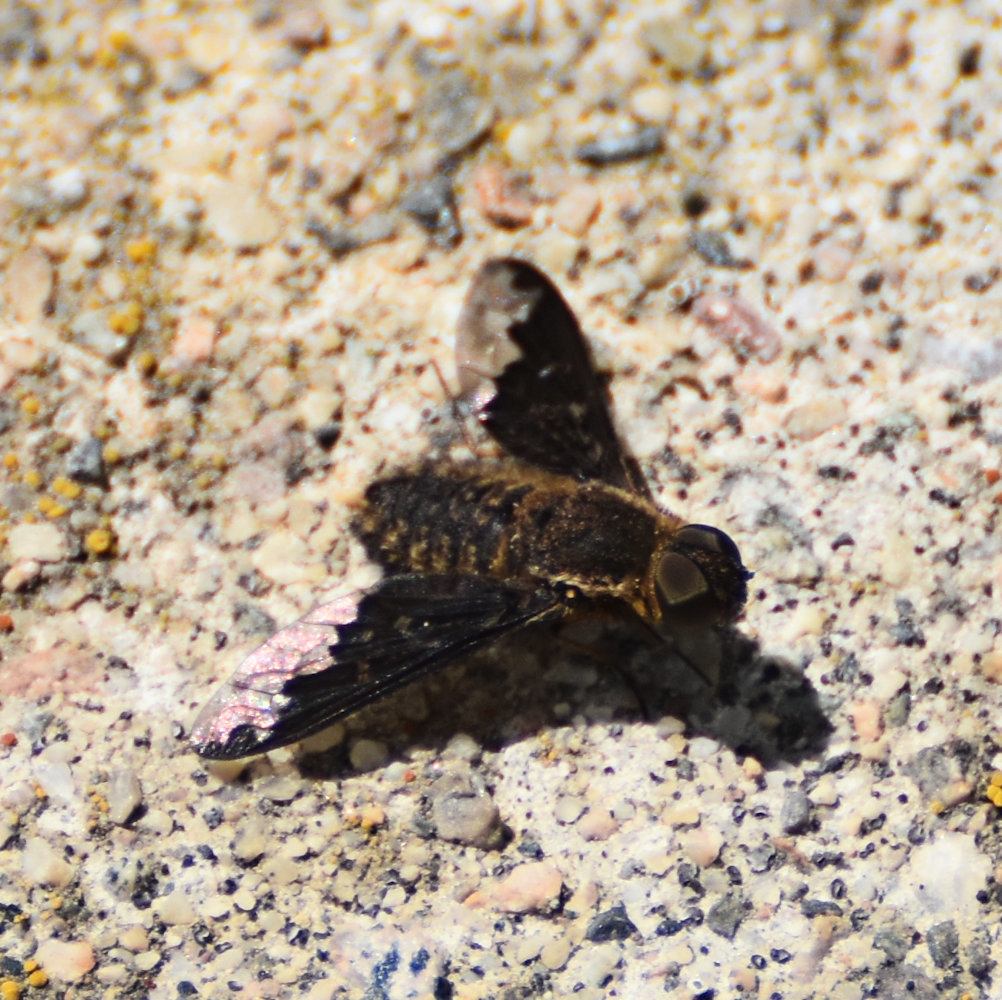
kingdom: Animalia
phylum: Arthropoda
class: Insecta
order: Diptera
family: Bombyliidae
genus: Hemipenthes
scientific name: Hemipenthes sinuosus
